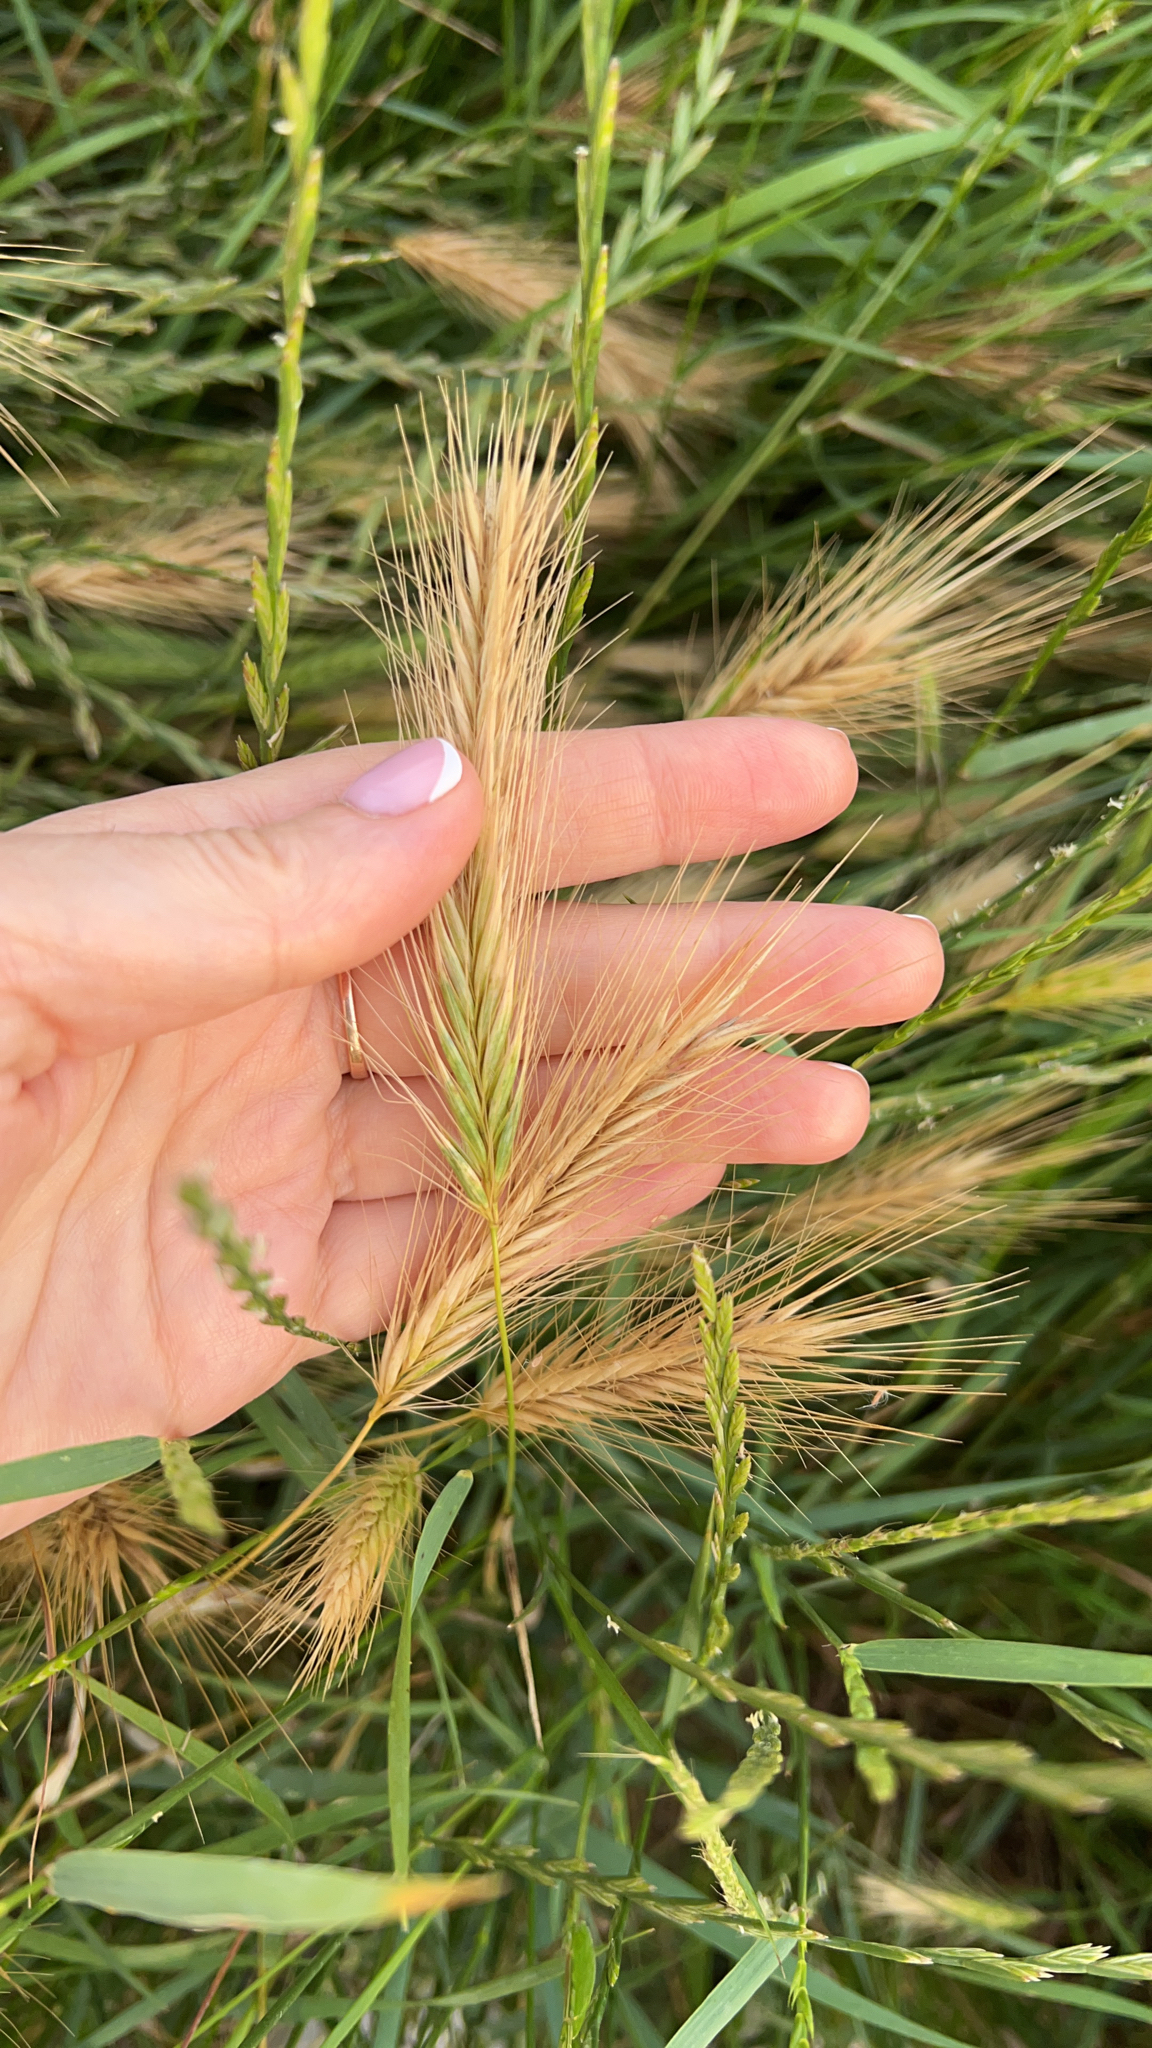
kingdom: Plantae
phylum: Tracheophyta
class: Liliopsida
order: Poales
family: Poaceae
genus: Hordeum
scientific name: Hordeum murinum
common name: Wall barley
